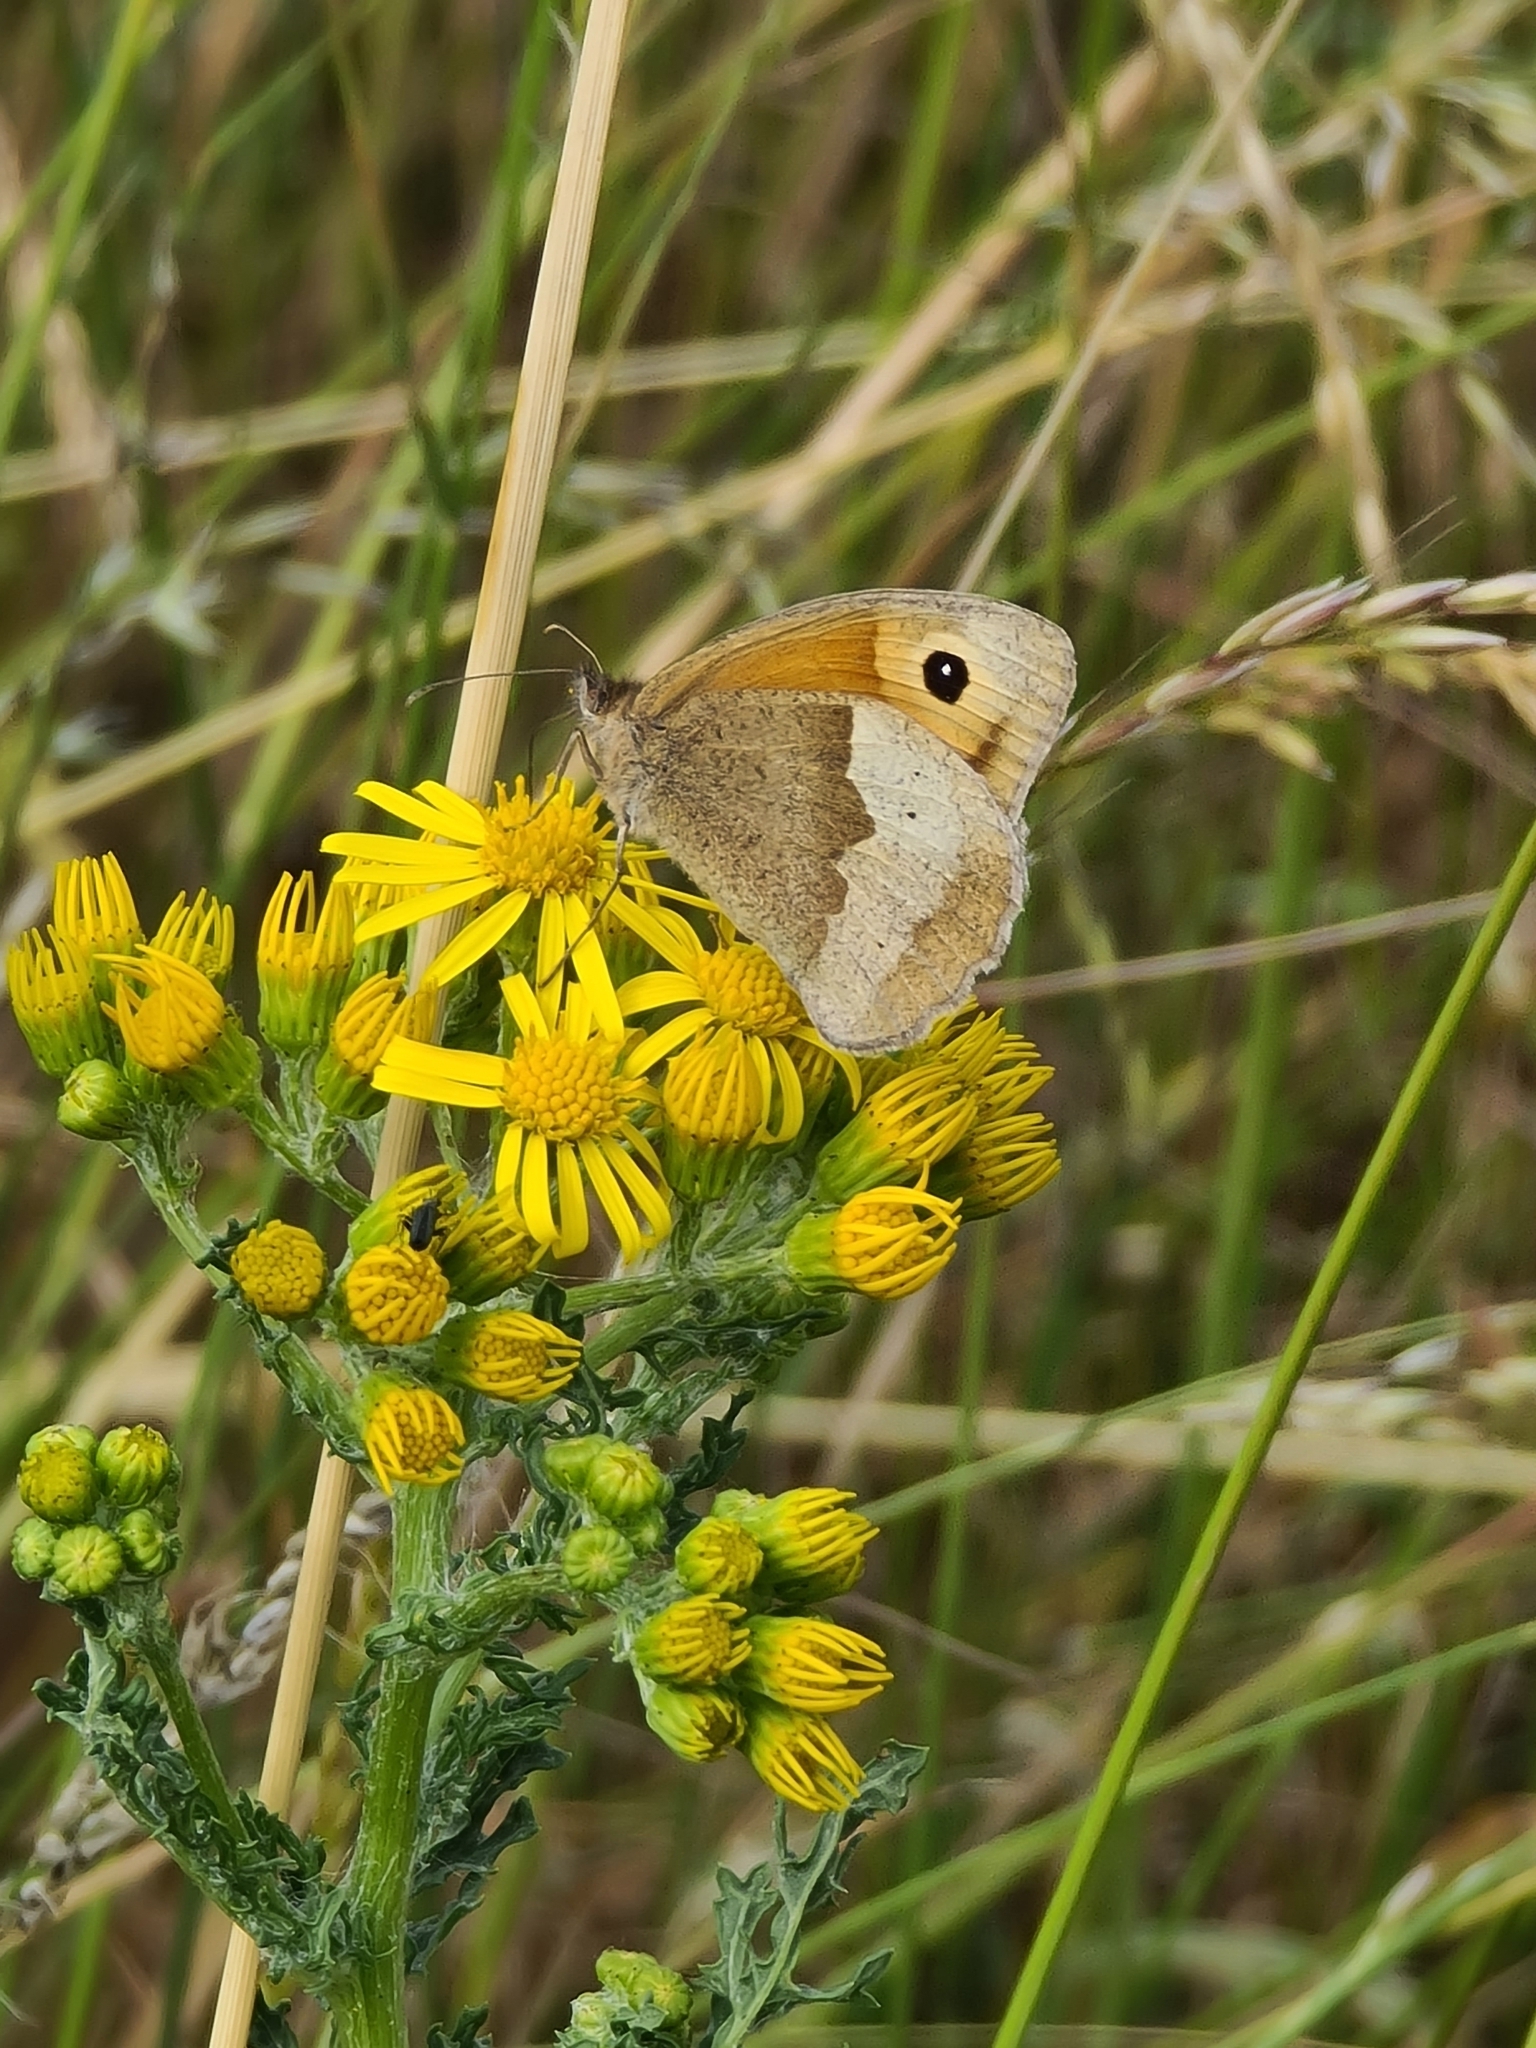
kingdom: Animalia
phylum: Arthropoda
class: Insecta
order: Lepidoptera
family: Nymphalidae
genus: Maniola
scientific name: Maniola jurtina
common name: Meadow brown
